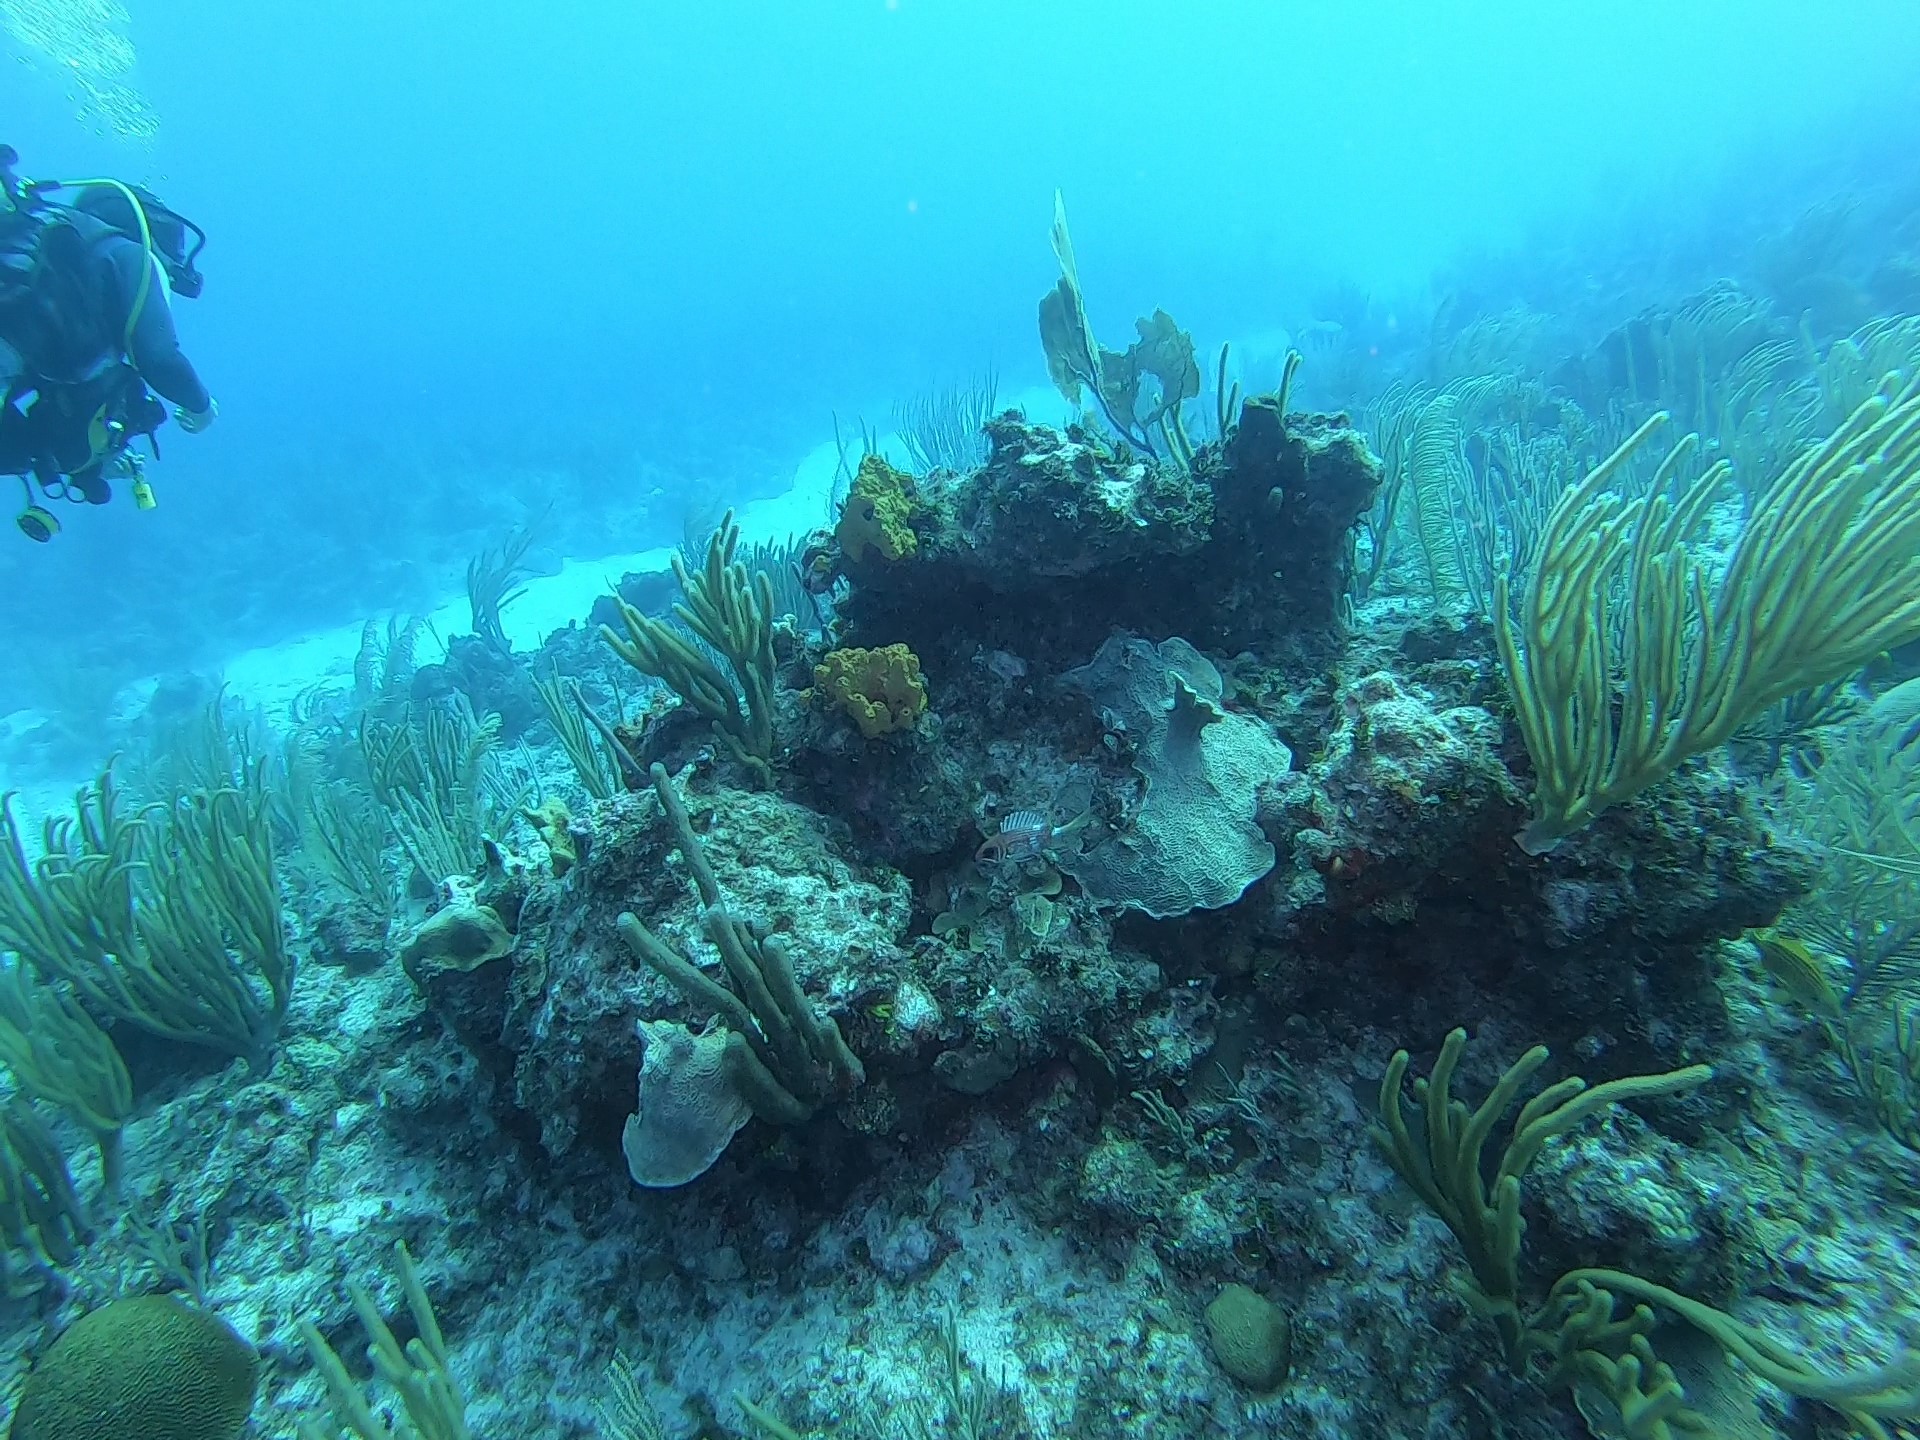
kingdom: Animalia
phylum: Chordata
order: Beryciformes
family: Holocentridae
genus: Holocentrus
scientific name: Holocentrus rufus
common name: Longspine squirrelfish
